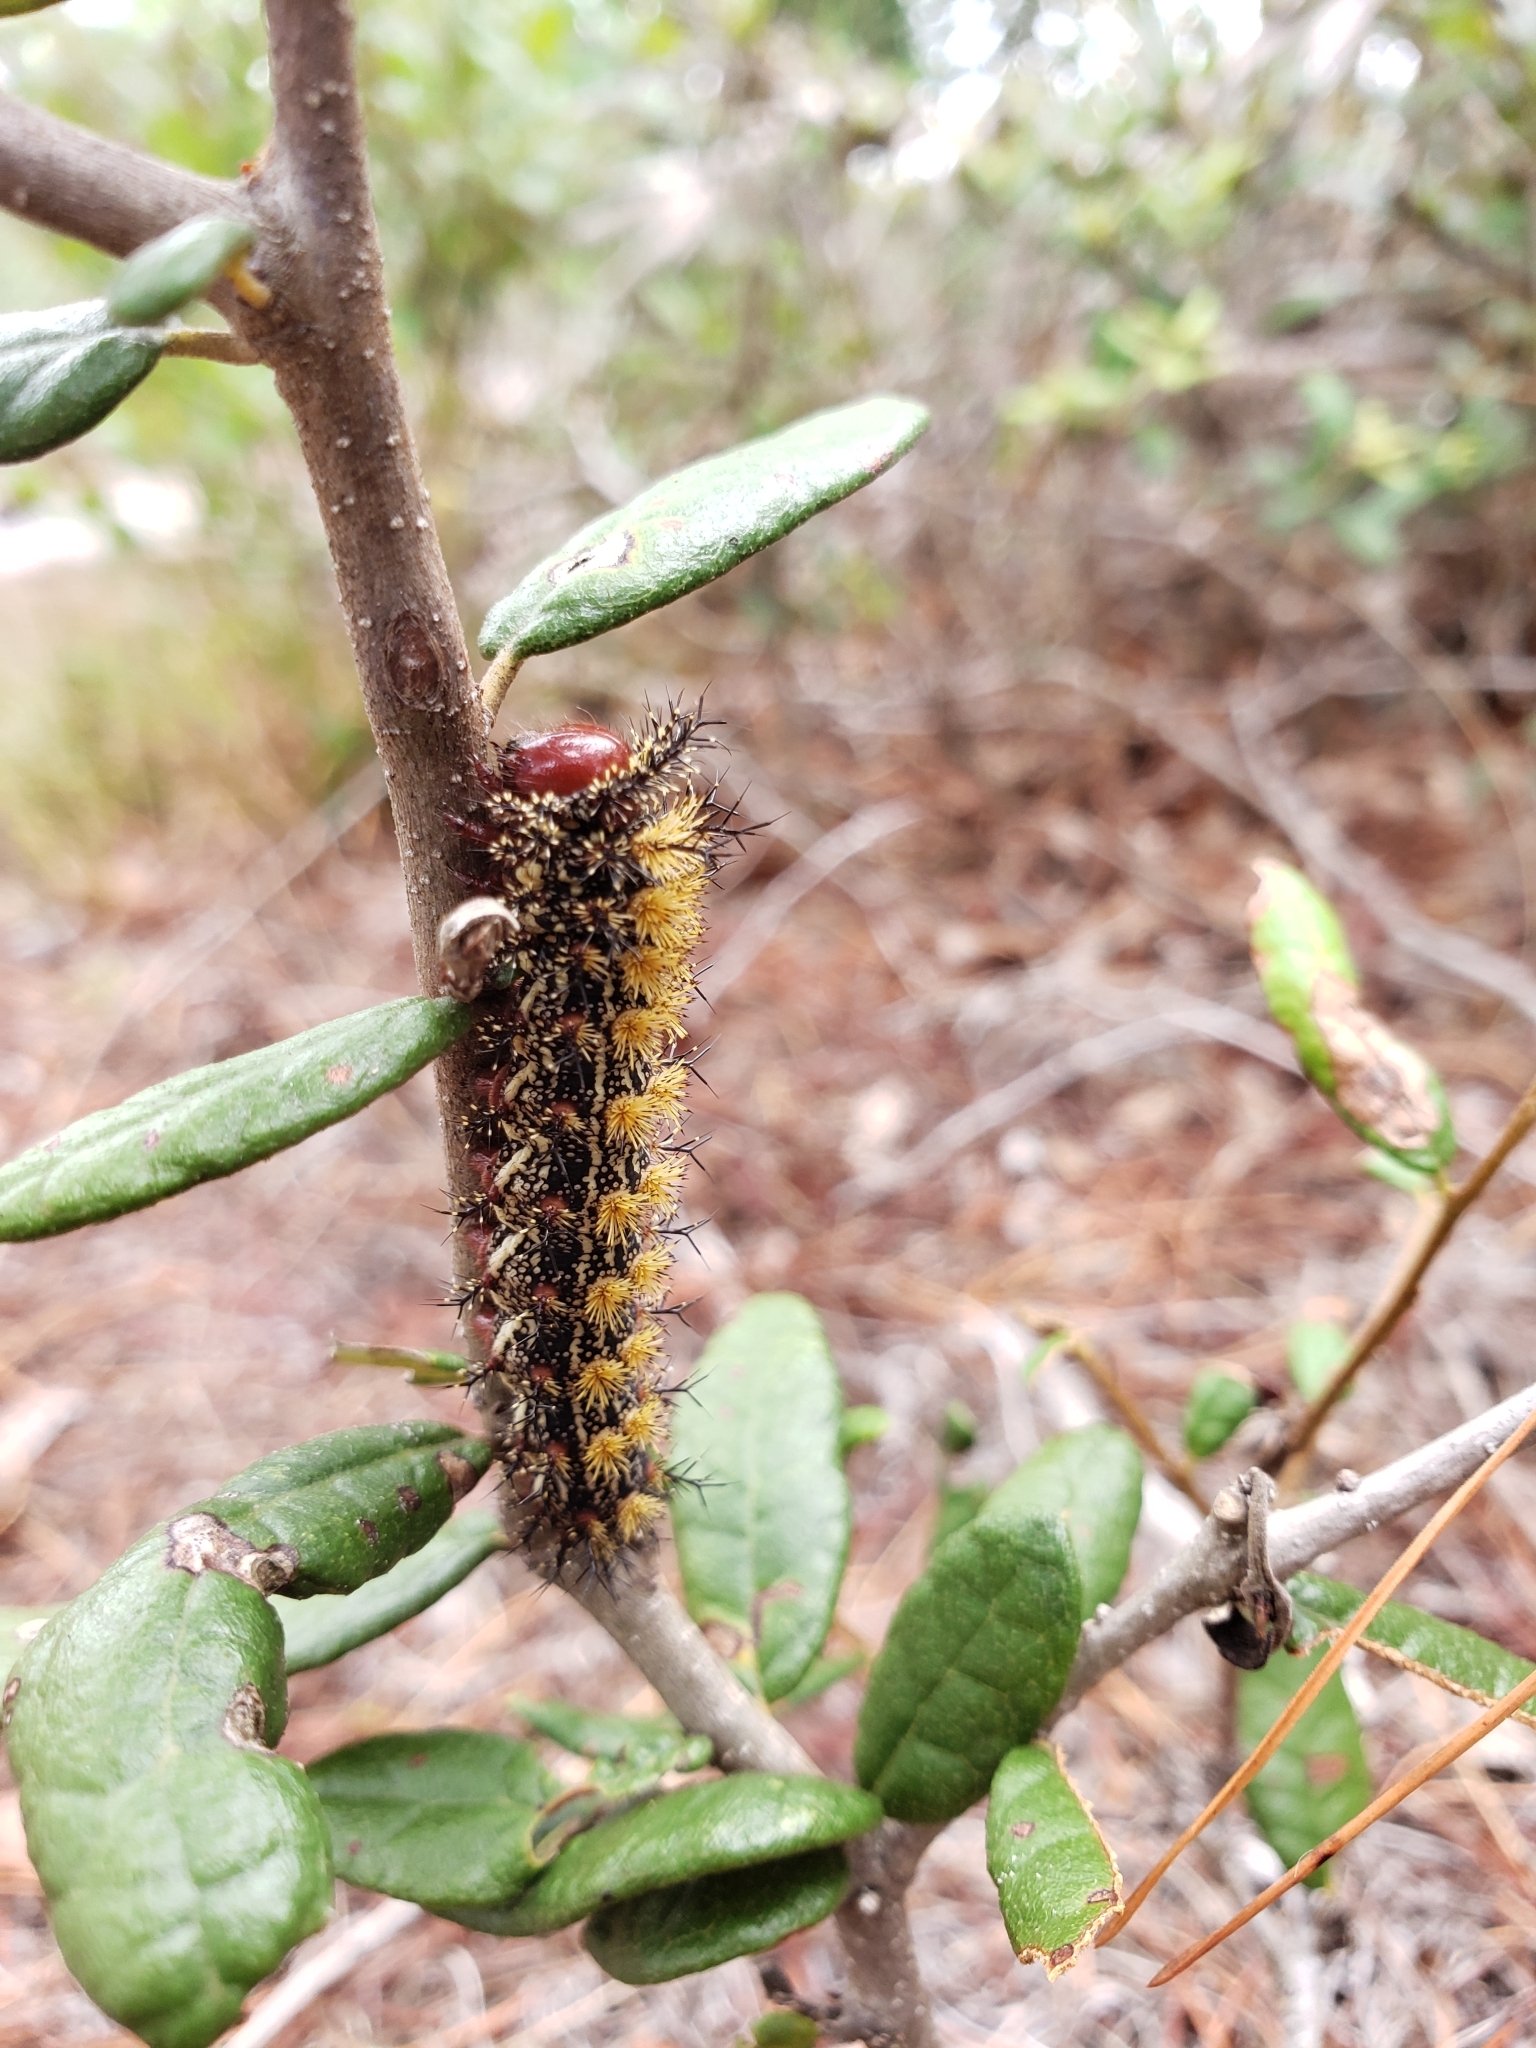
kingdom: Animalia
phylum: Arthropoda
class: Insecta
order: Lepidoptera
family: Saturniidae
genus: Hemileuca
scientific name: Hemileuca maia
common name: Eastern buckmoth
